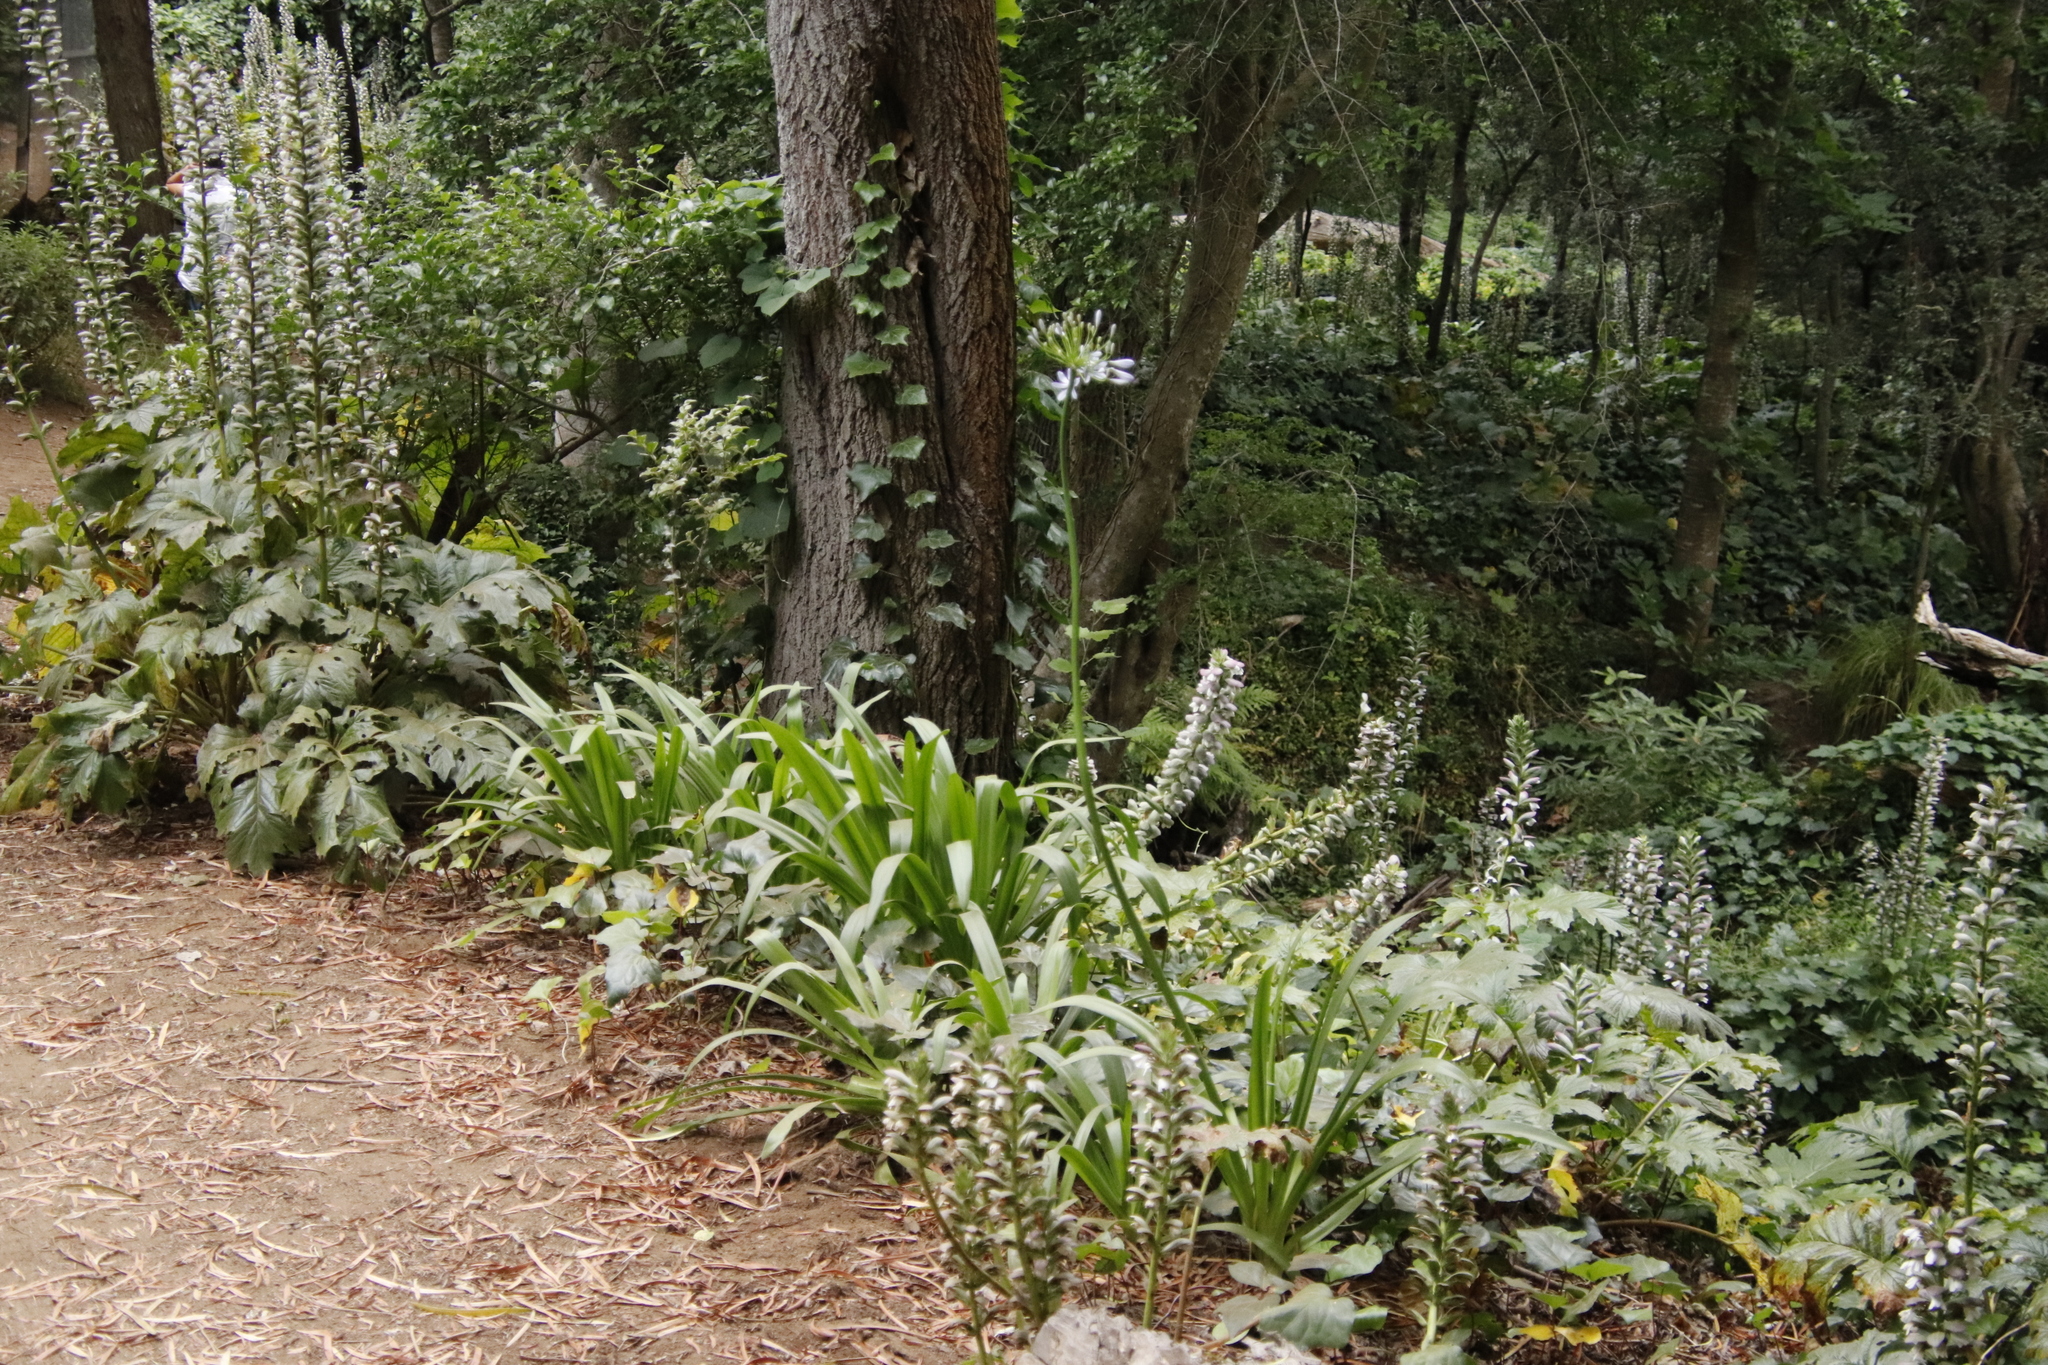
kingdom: Plantae
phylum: Tracheophyta
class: Liliopsida
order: Asparagales
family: Amaryllidaceae
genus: Agapanthus
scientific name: Agapanthus praecox
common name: African-lily
